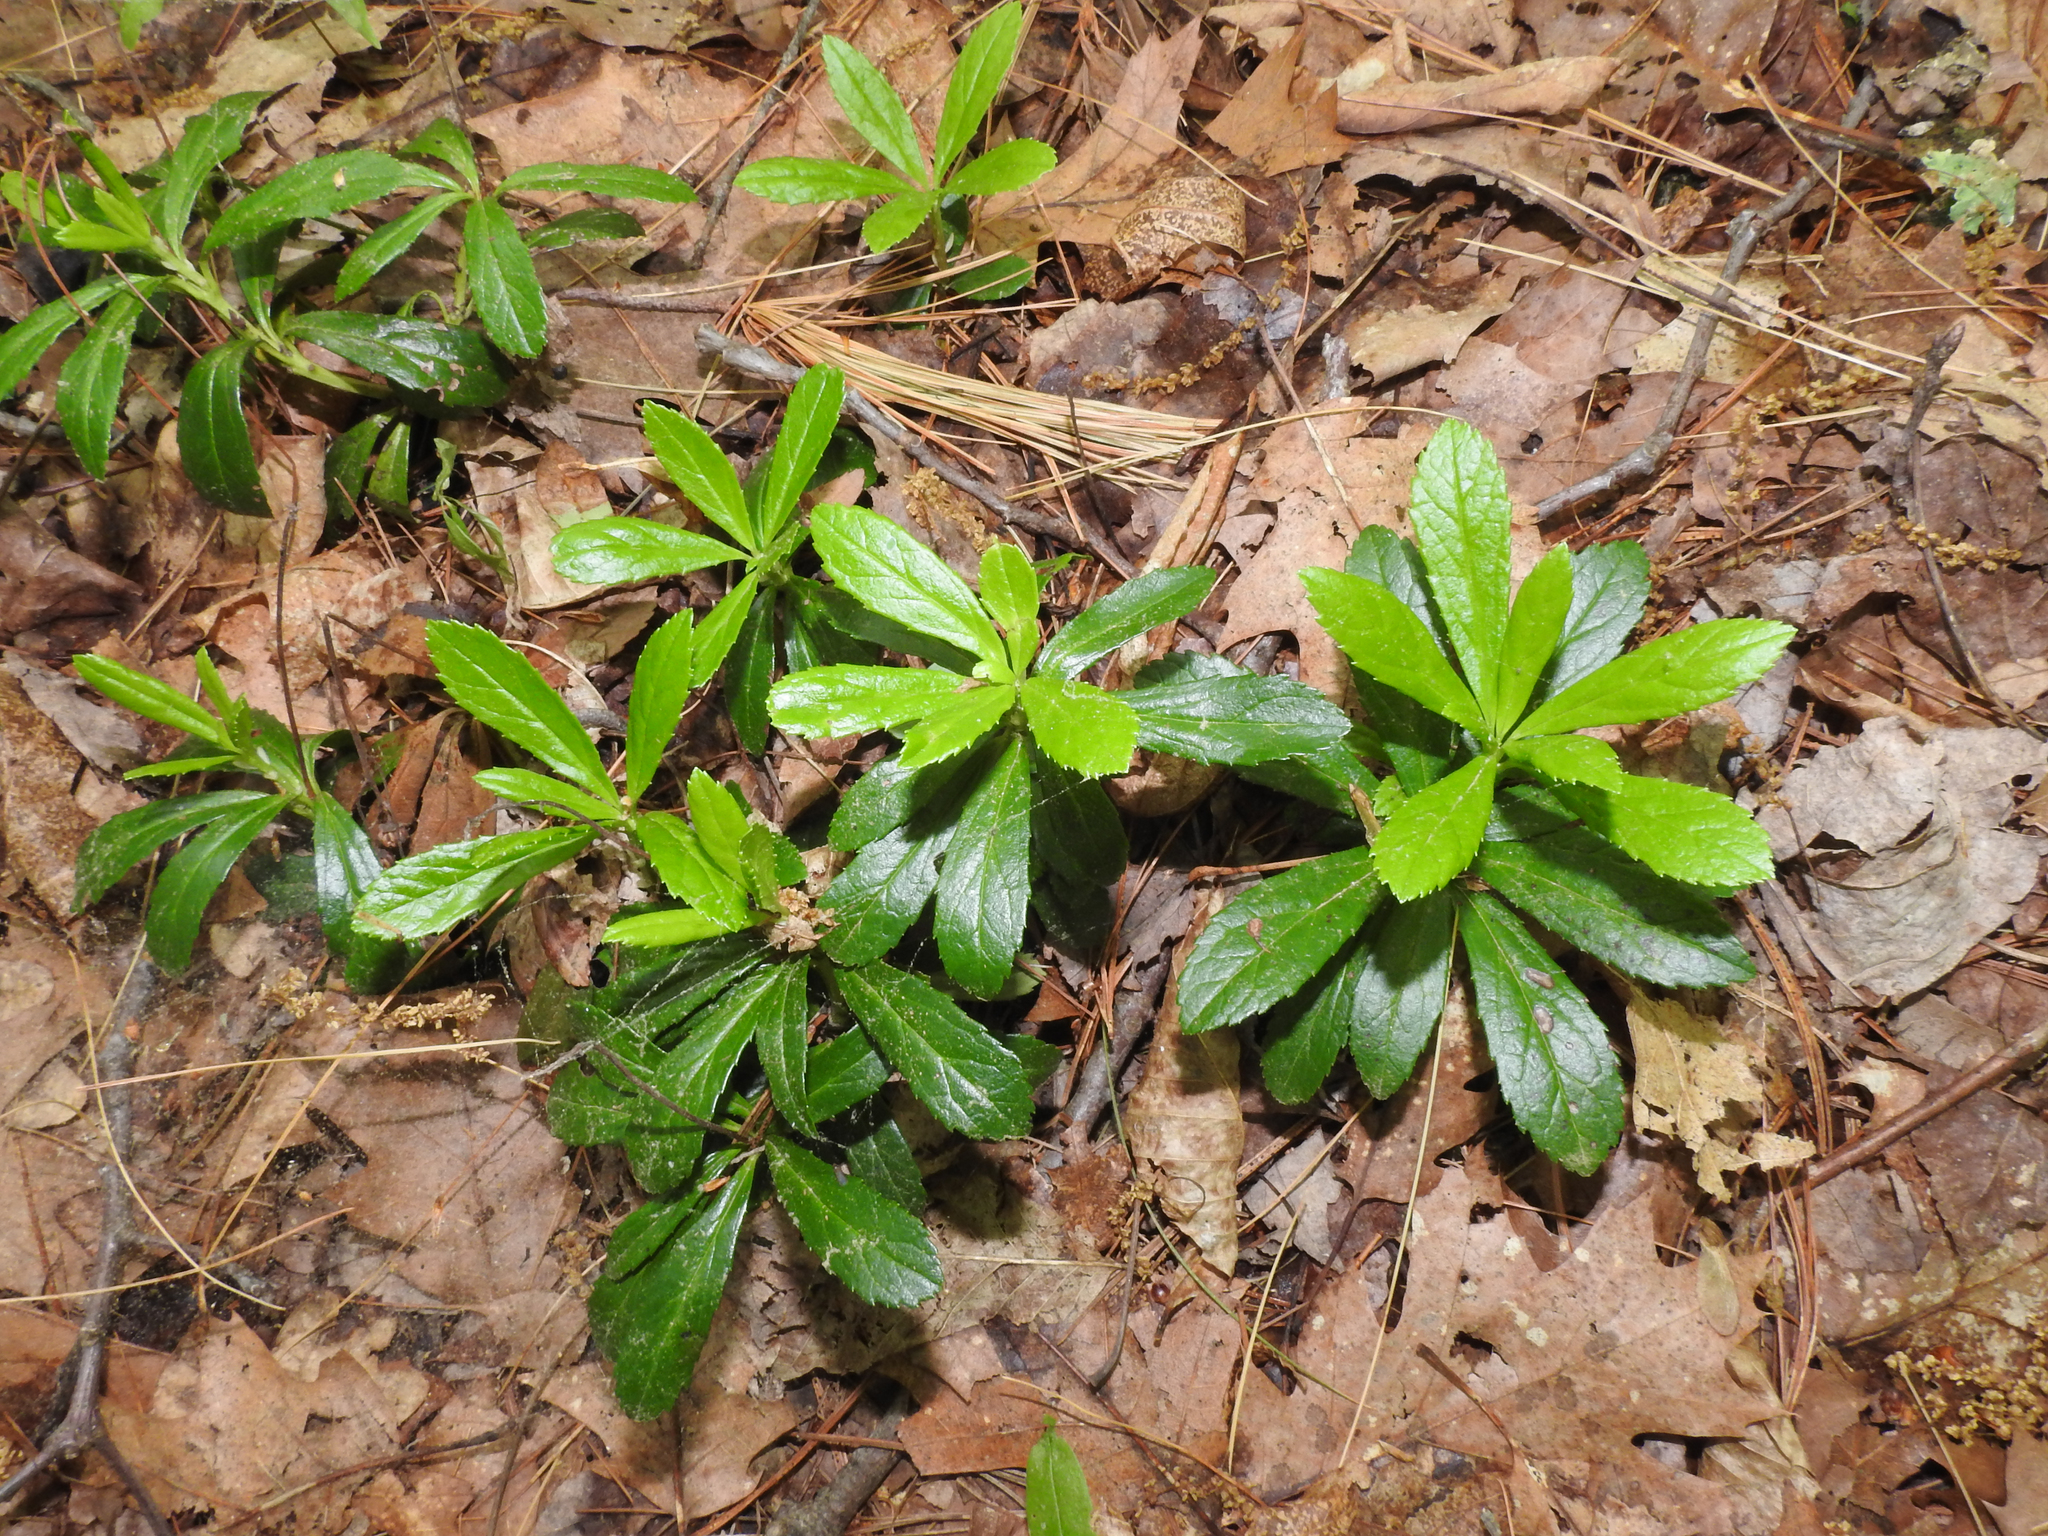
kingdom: Plantae
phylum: Tracheophyta
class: Magnoliopsida
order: Ericales
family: Ericaceae
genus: Chimaphila
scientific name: Chimaphila umbellata
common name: Pipsissewa
